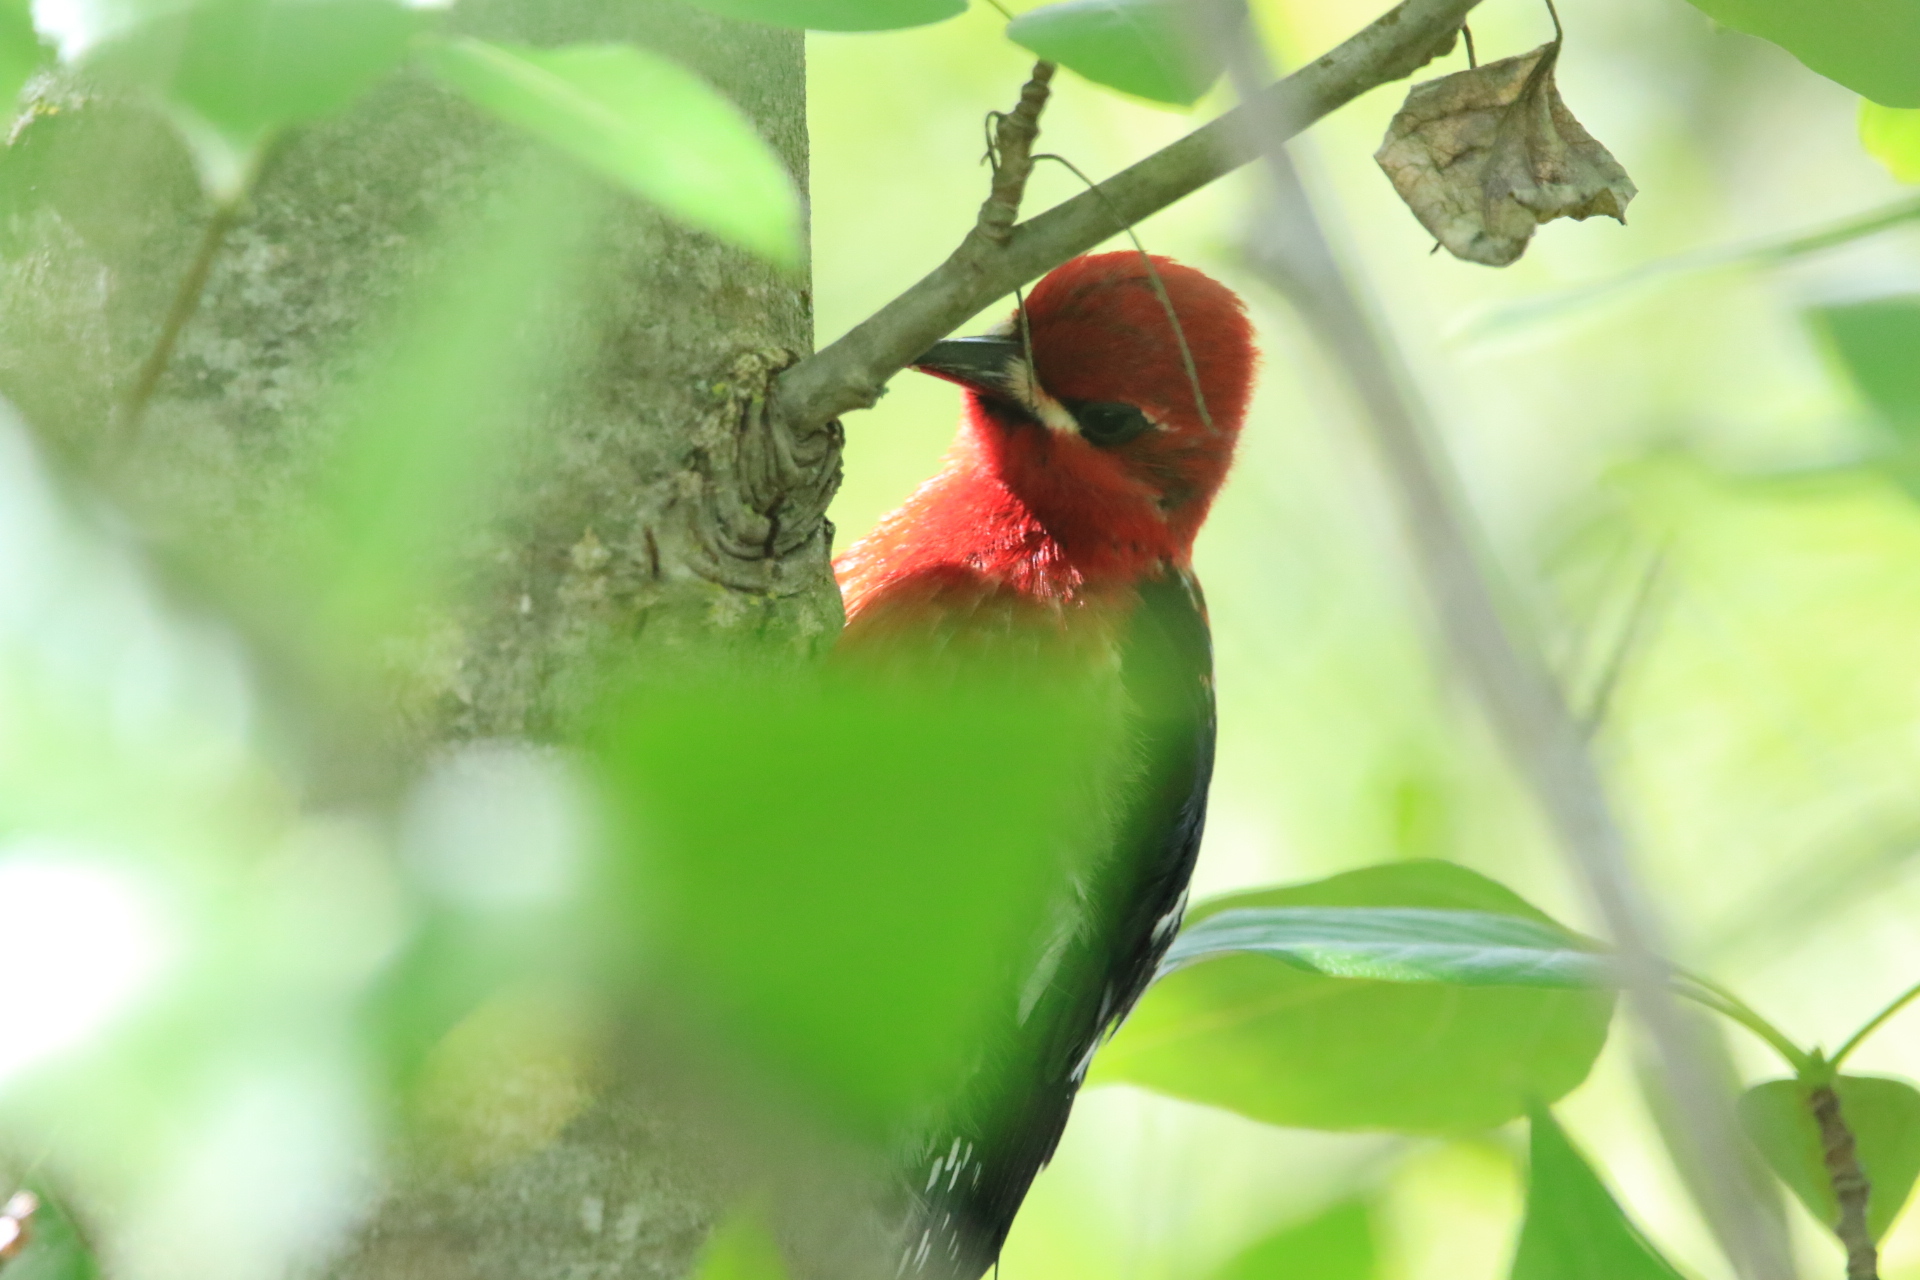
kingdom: Animalia
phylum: Chordata
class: Aves
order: Piciformes
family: Picidae
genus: Sphyrapicus
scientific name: Sphyrapicus ruber
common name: Red-breasted sapsucker
